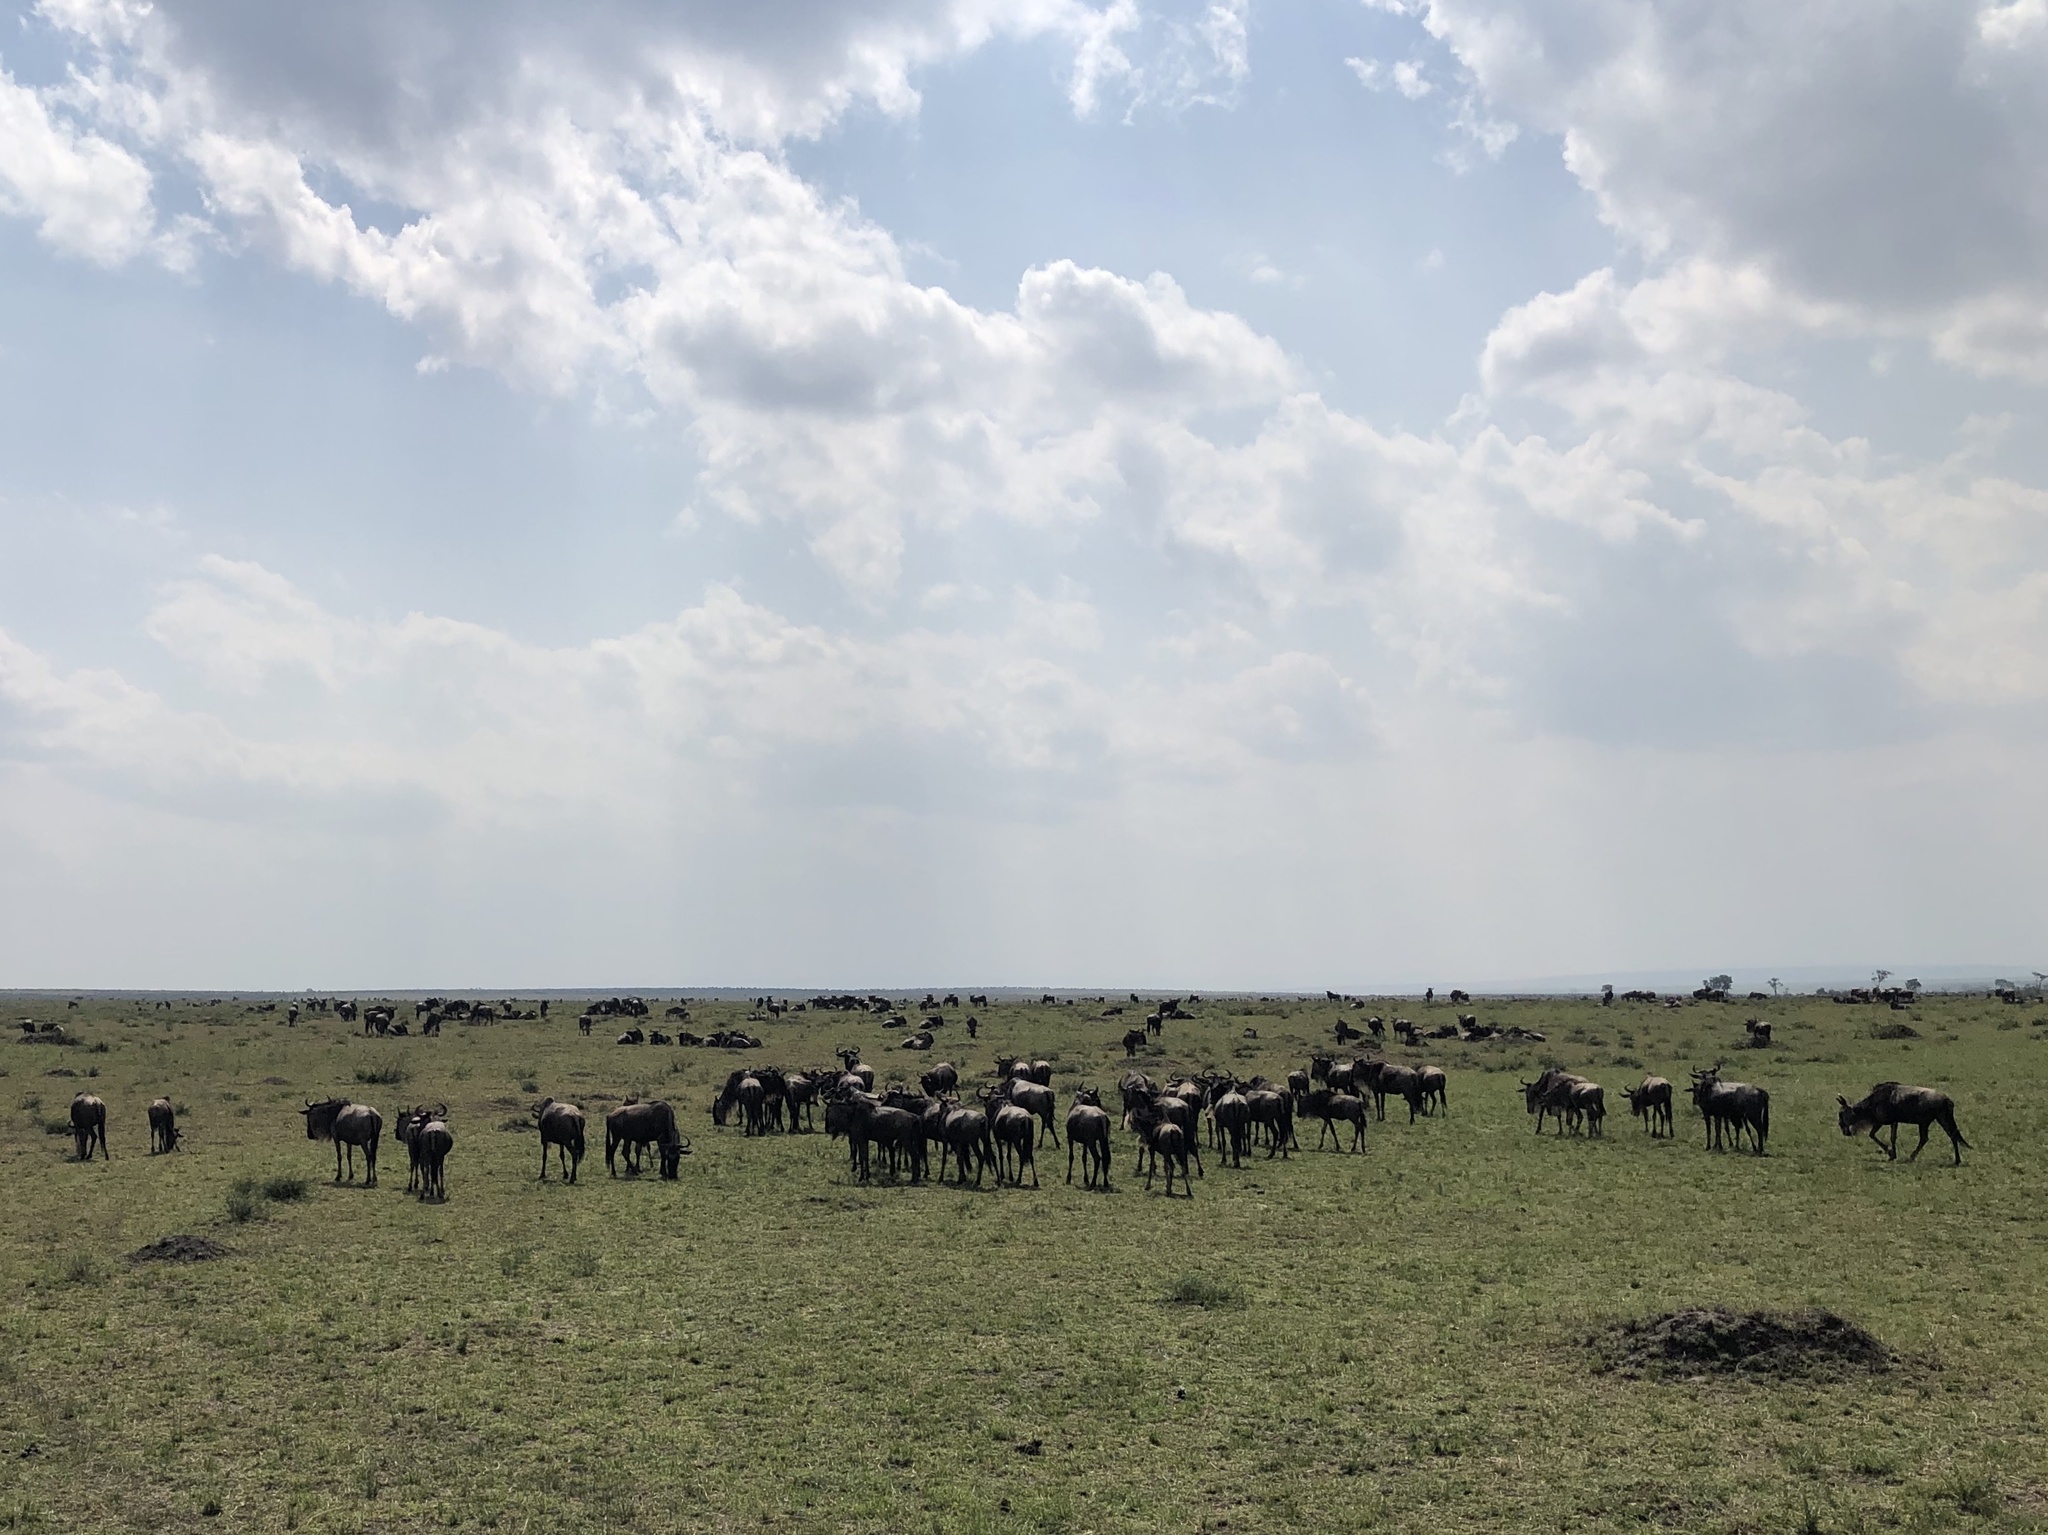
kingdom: Animalia
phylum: Chordata
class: Mammalia
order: Artiodactyla
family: Bovidae
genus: Connochaetes
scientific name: Connochaetes taurinus
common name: Blue wildebeest
